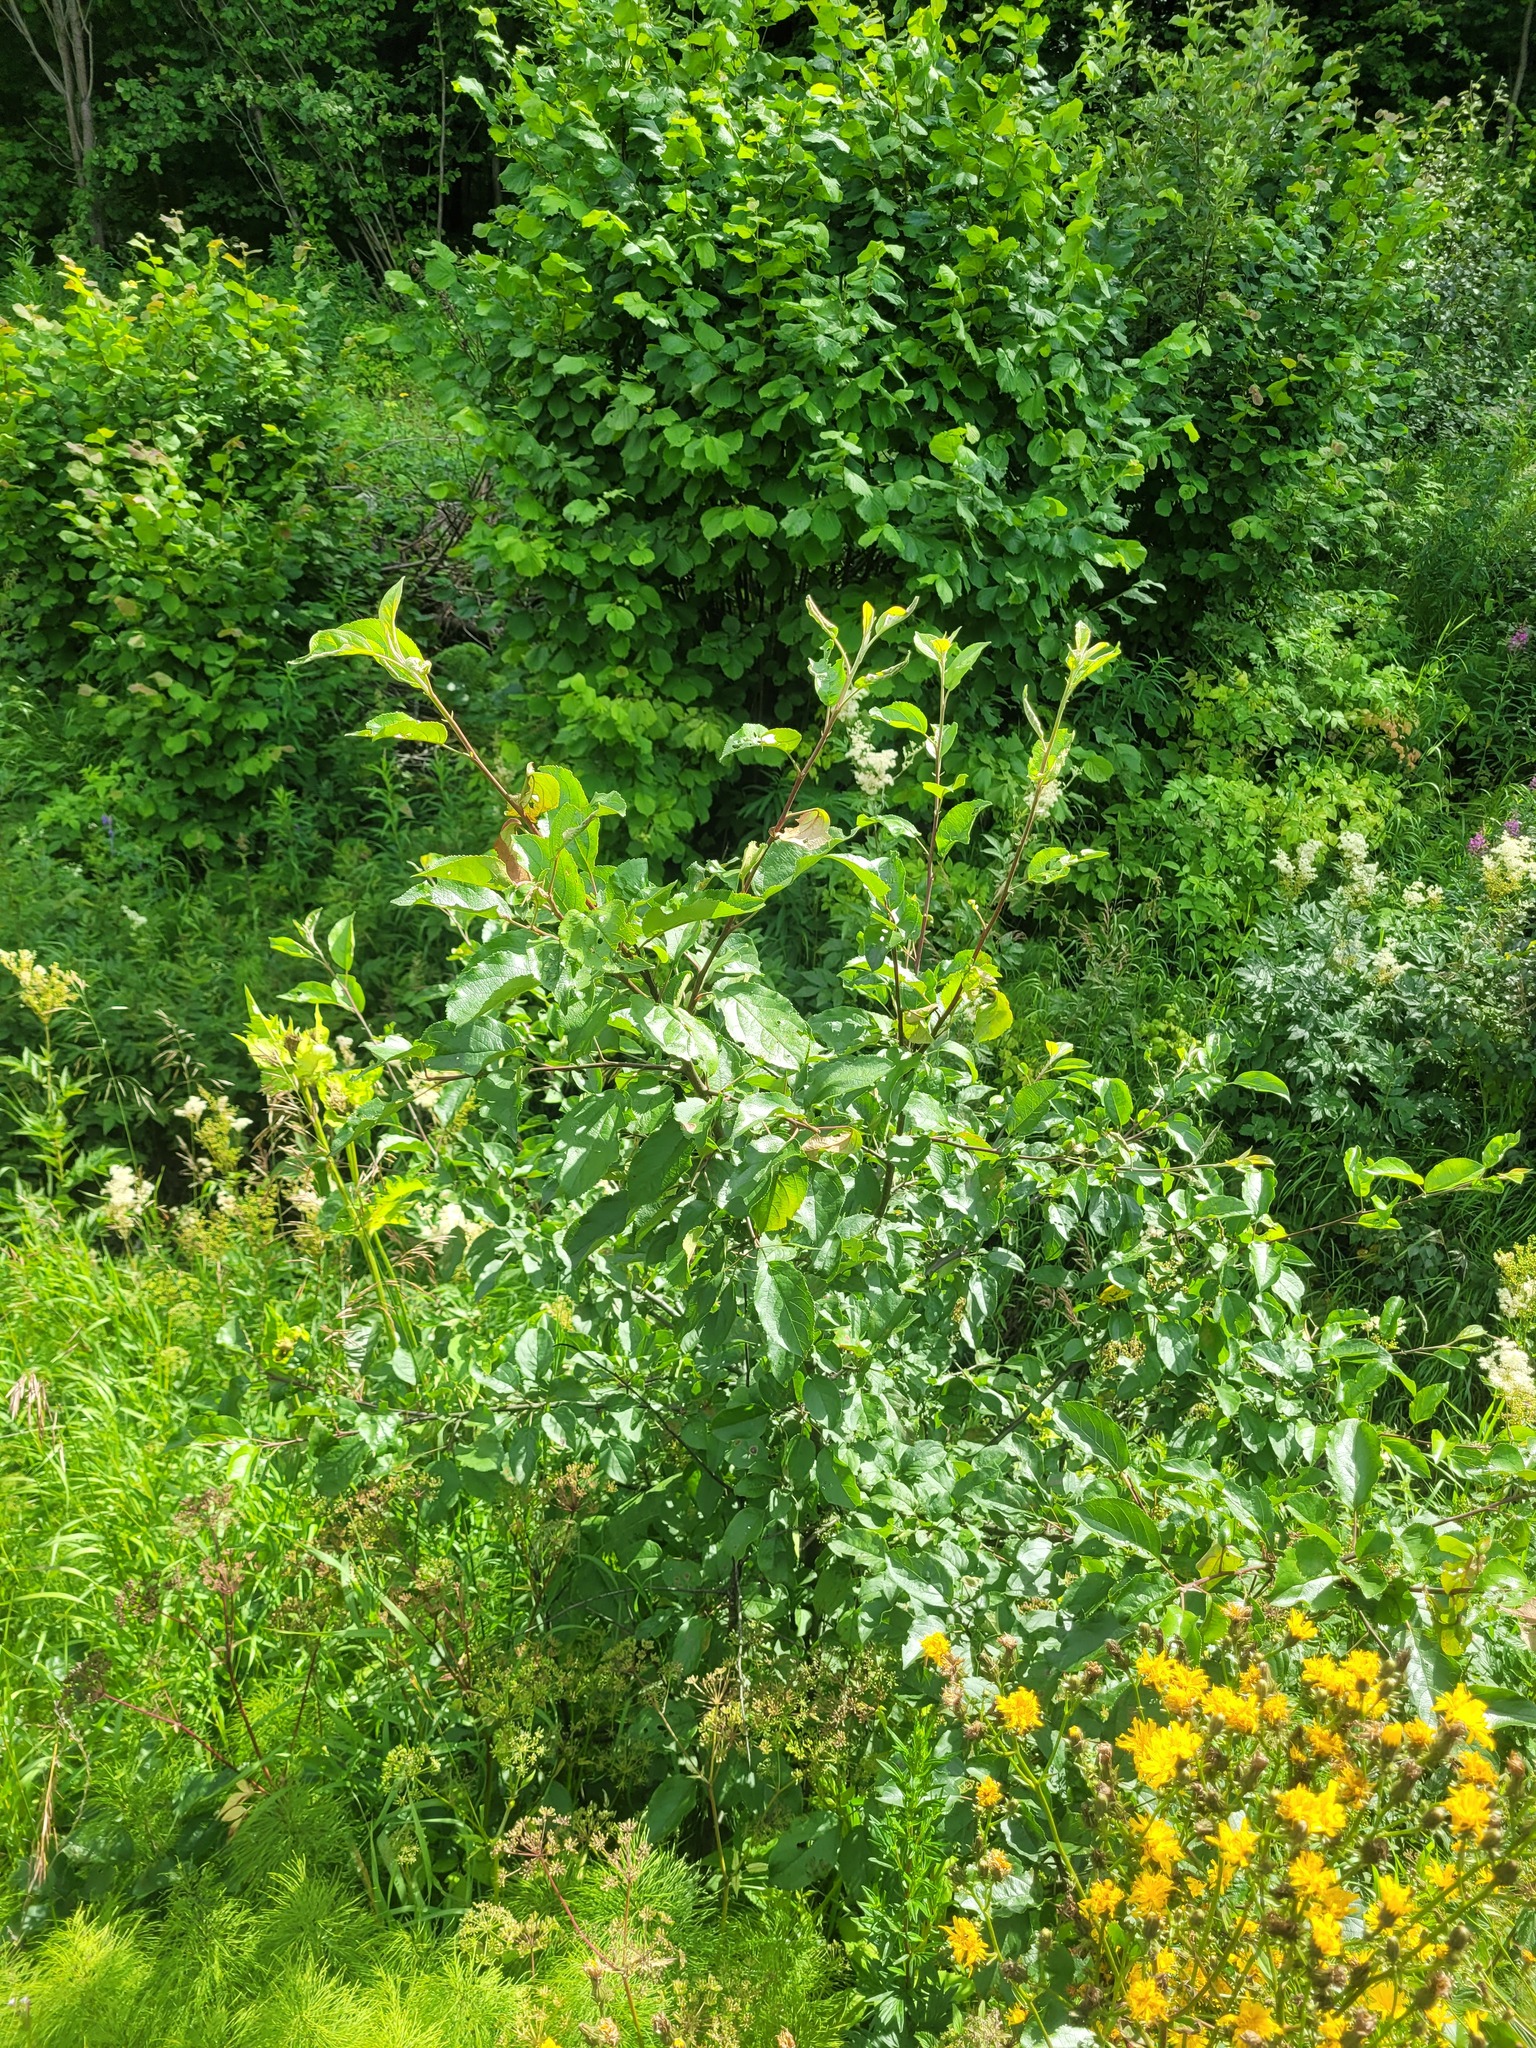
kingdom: Plantae
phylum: Tracheophyta
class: Magnoliopsida
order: Rosales
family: Rosaceae
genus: Malus
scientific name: Malus domestica
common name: Apple
